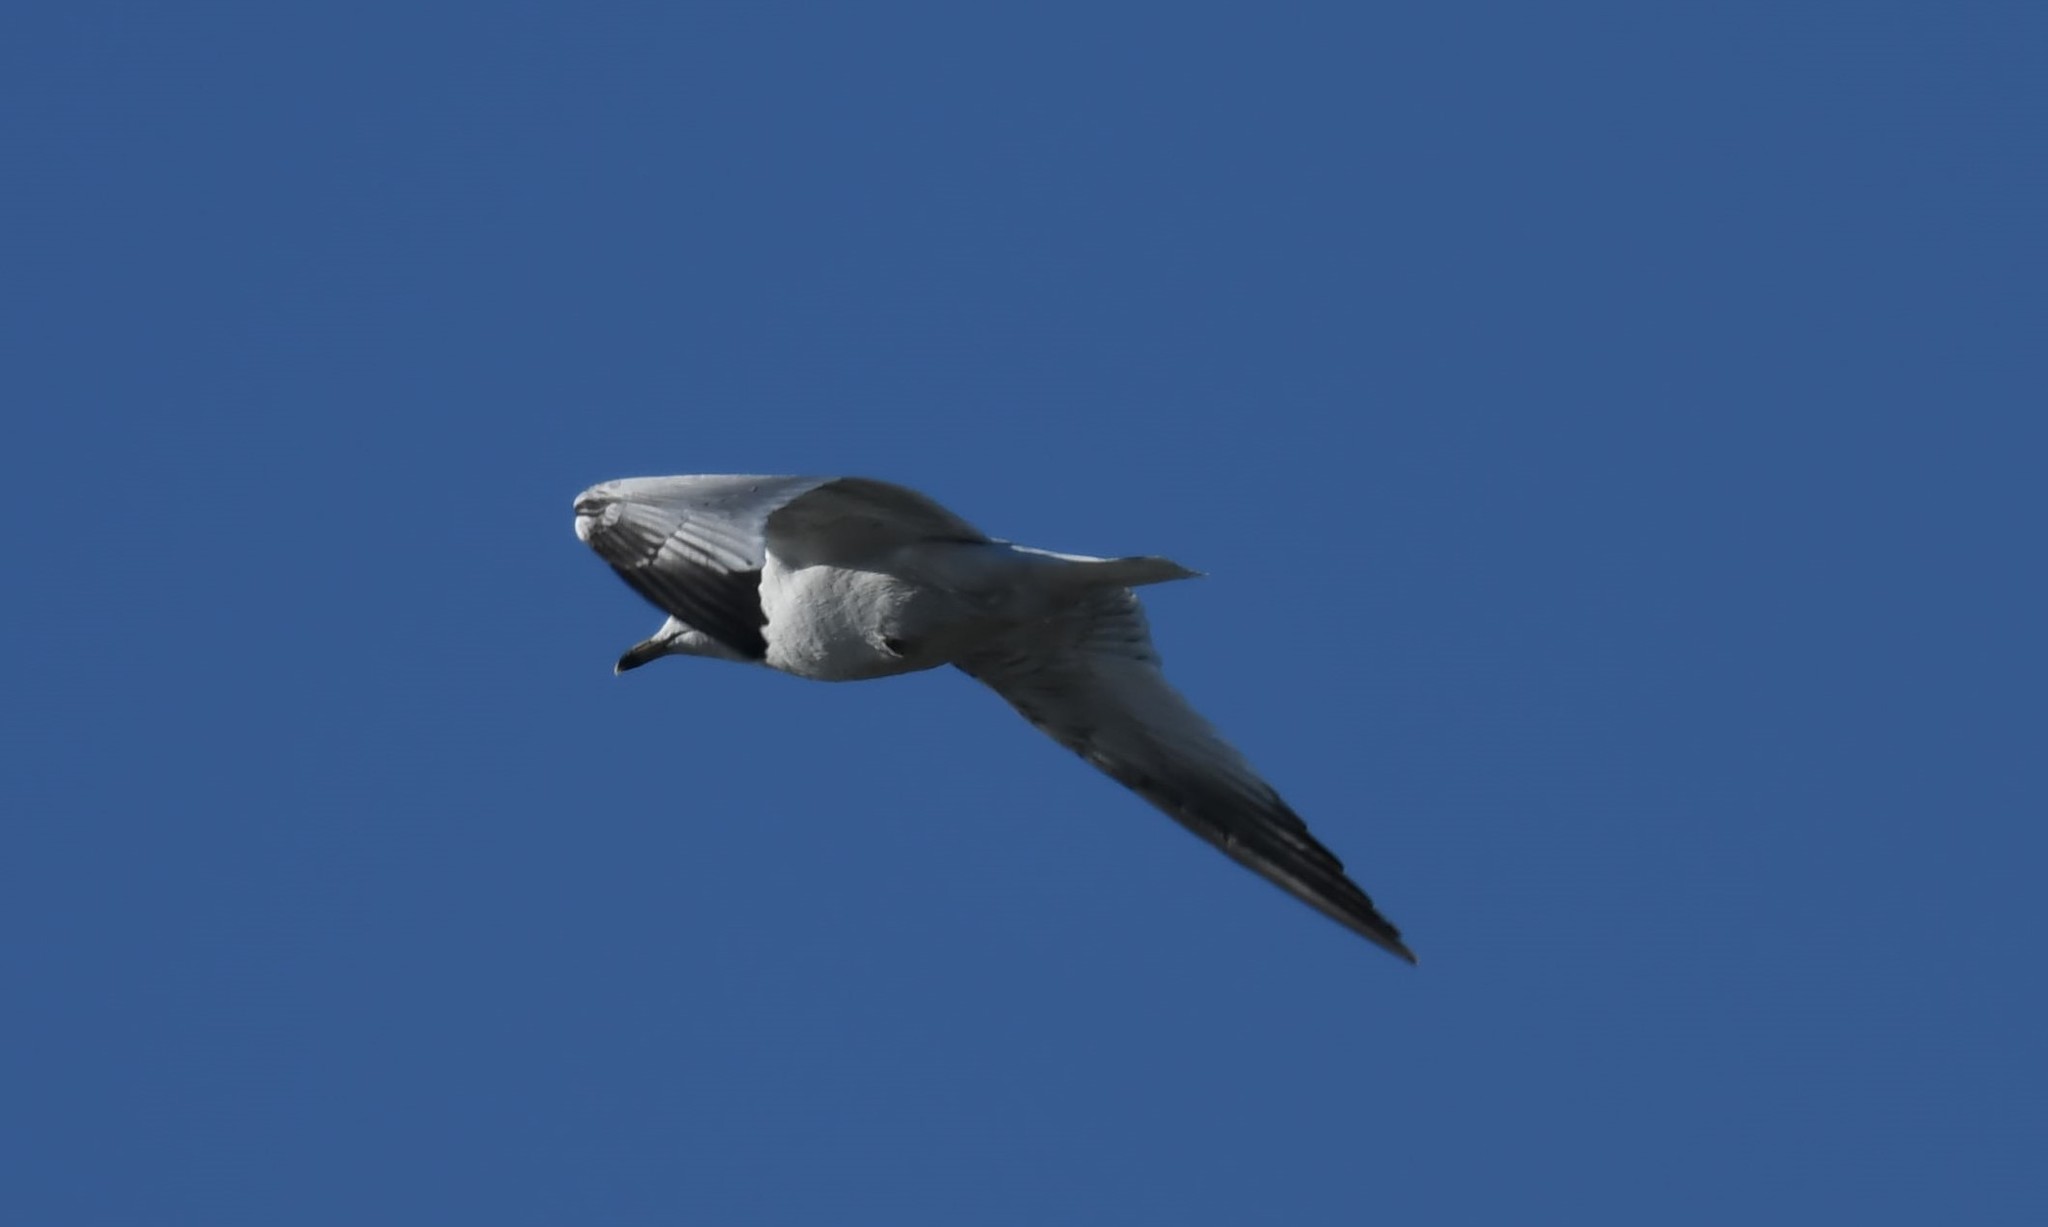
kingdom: Animalia
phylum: Chordata
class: Aves
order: Charadriiformes
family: Laridae
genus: Larus
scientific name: Larus delawarensis
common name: Ring-billed gull
